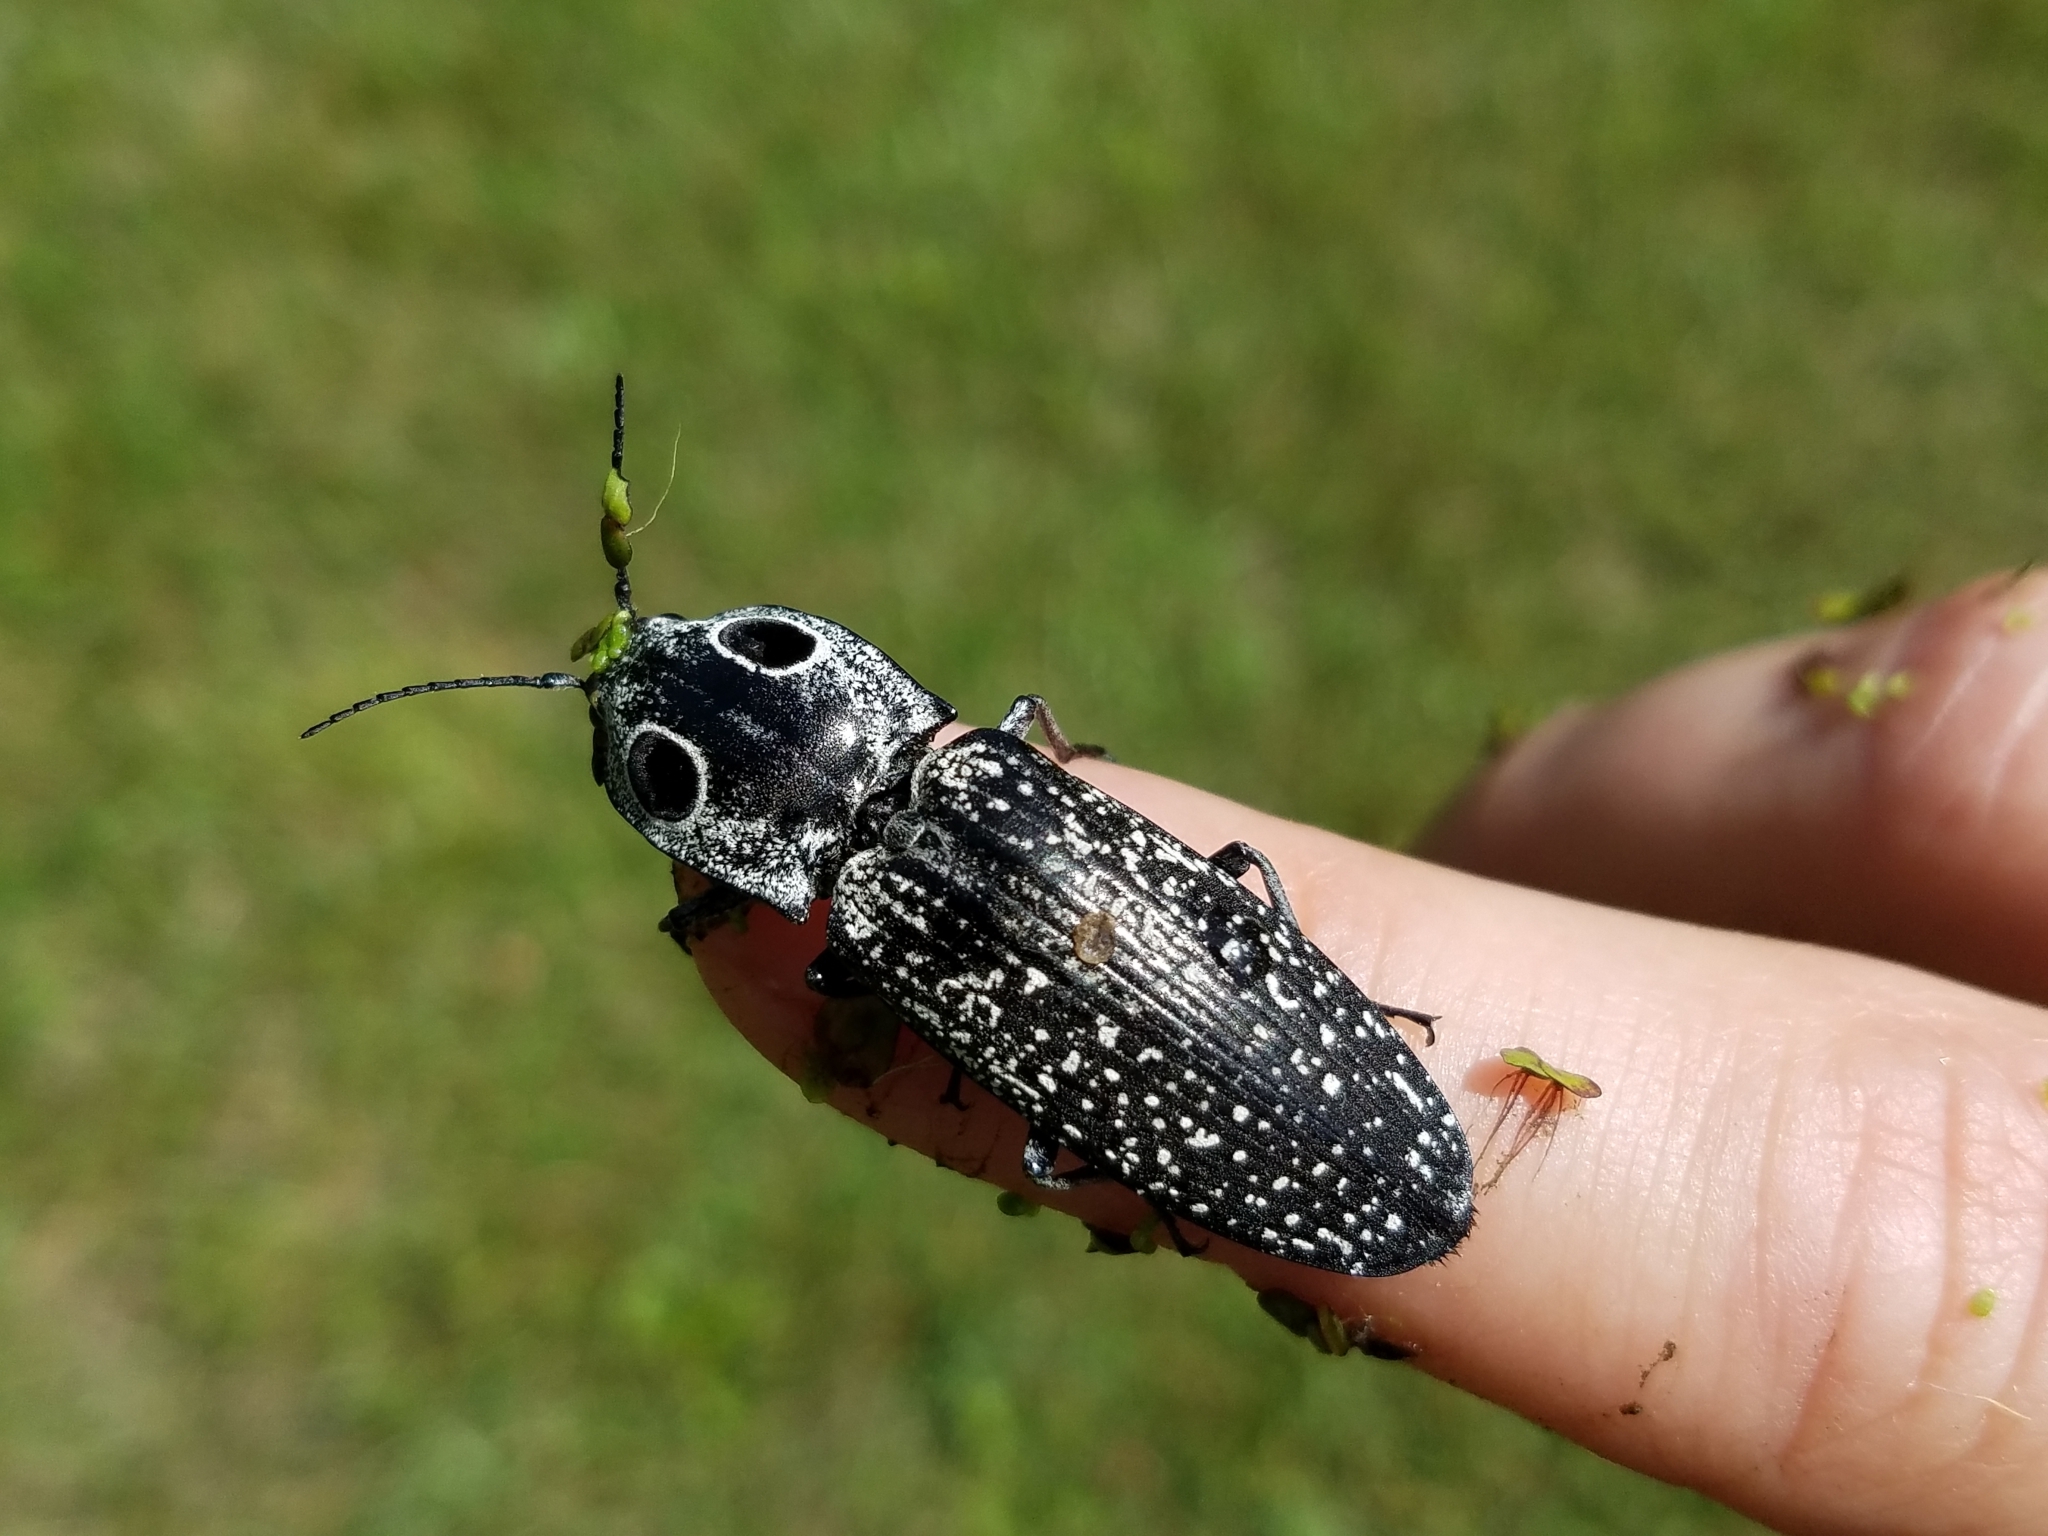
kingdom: Animalia
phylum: Arthropoda
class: Insecta
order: Coleoptera
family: Elateridae
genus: Alaus
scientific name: Alaus oculatus
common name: Eastern eyed click beetle
